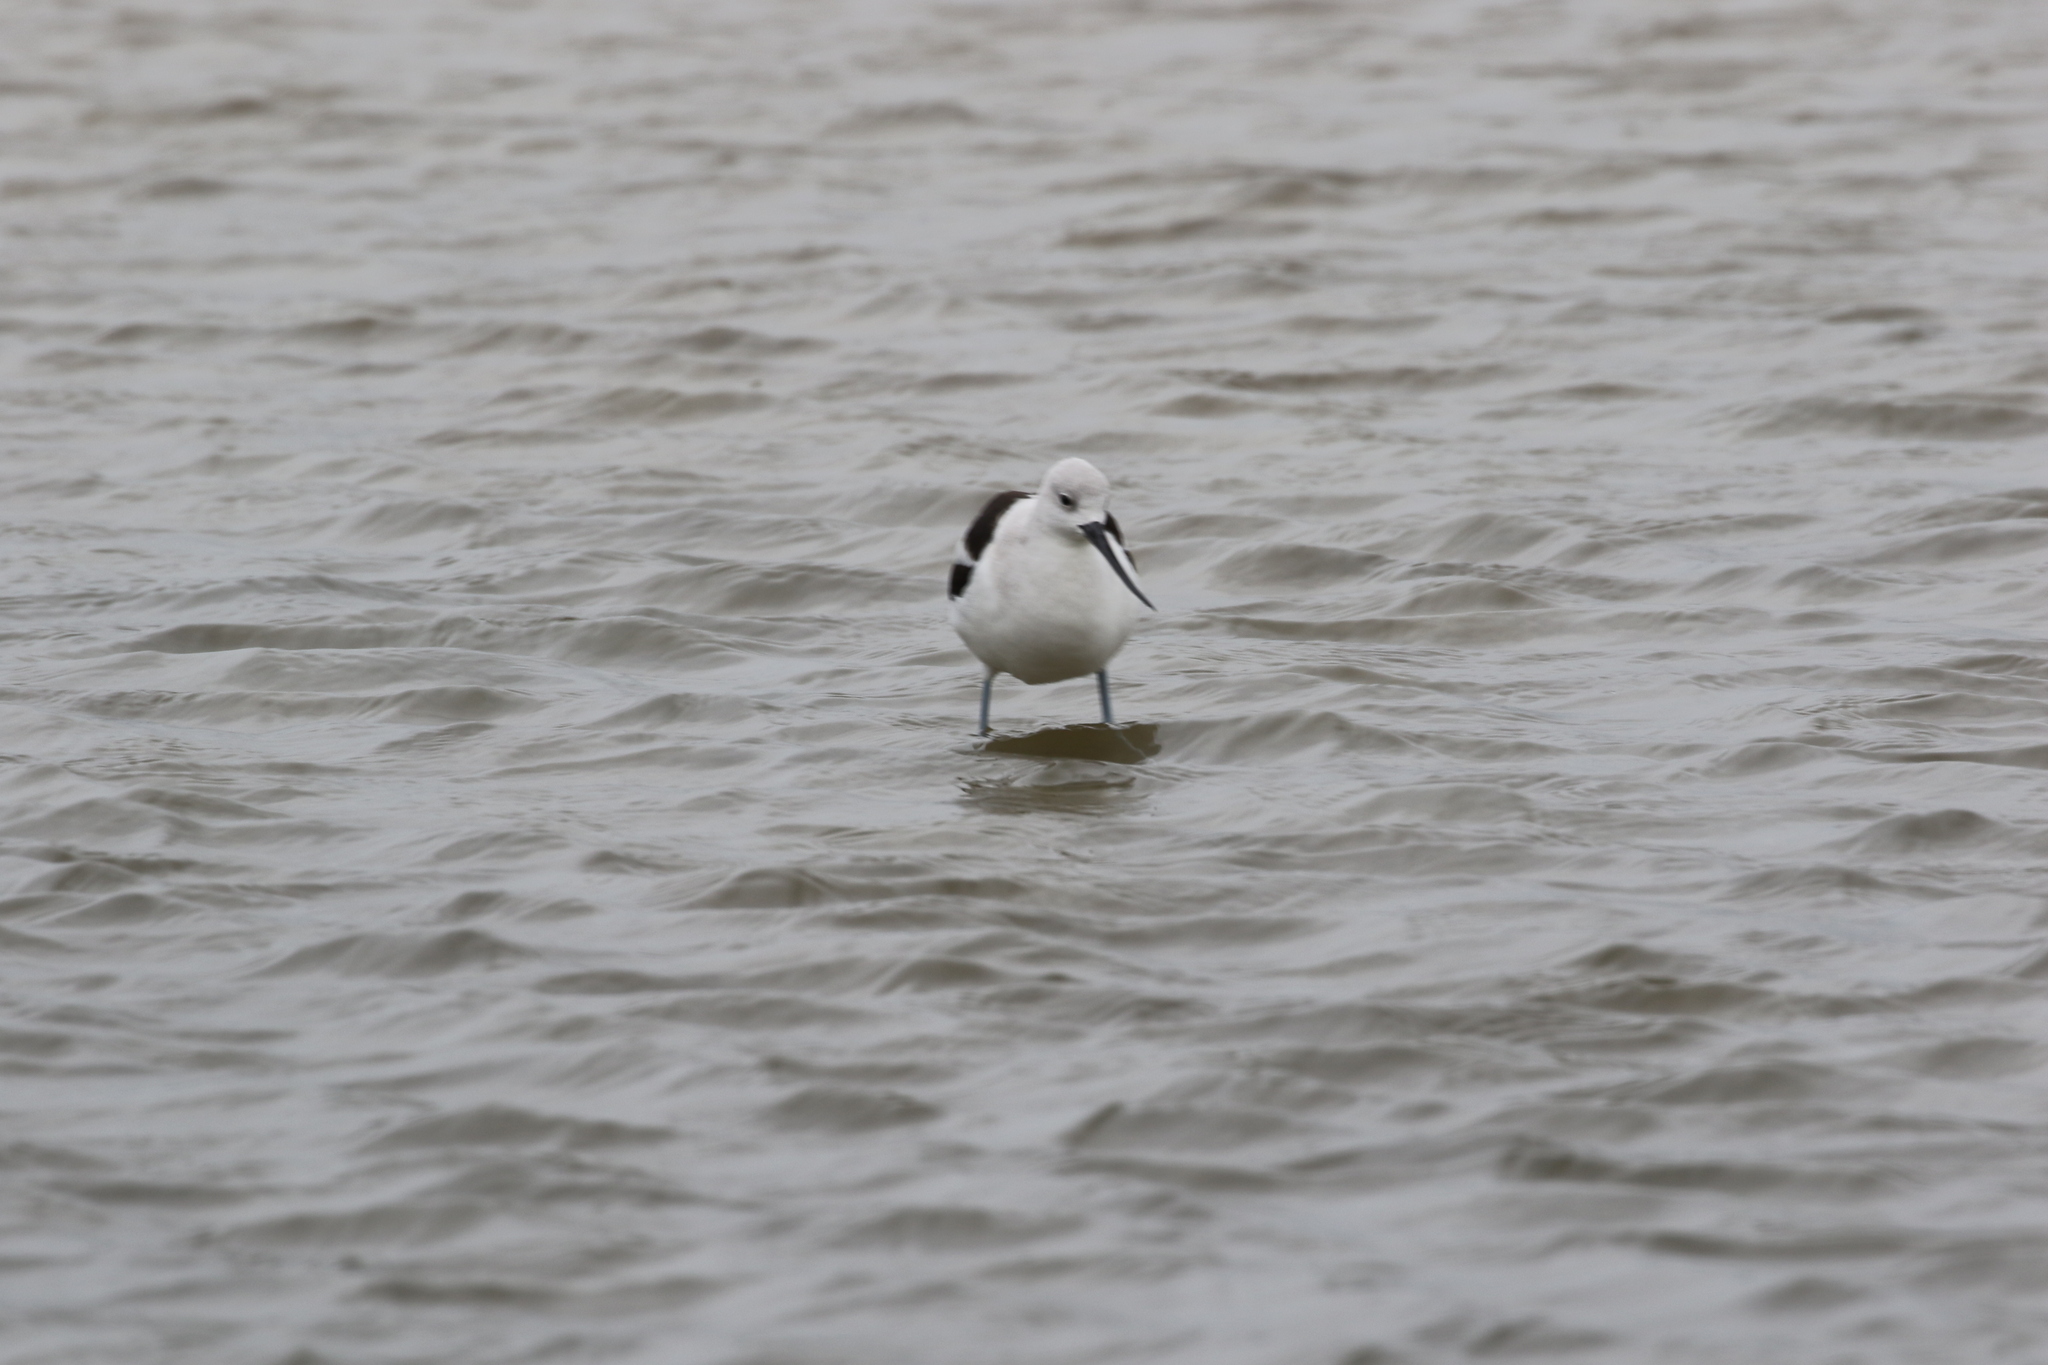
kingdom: Animalia
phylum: Chordata
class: Aves
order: Charadriiformes
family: Recurvirostridae
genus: Recurvirostra
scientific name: Recurvirostra americana
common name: American avocet
